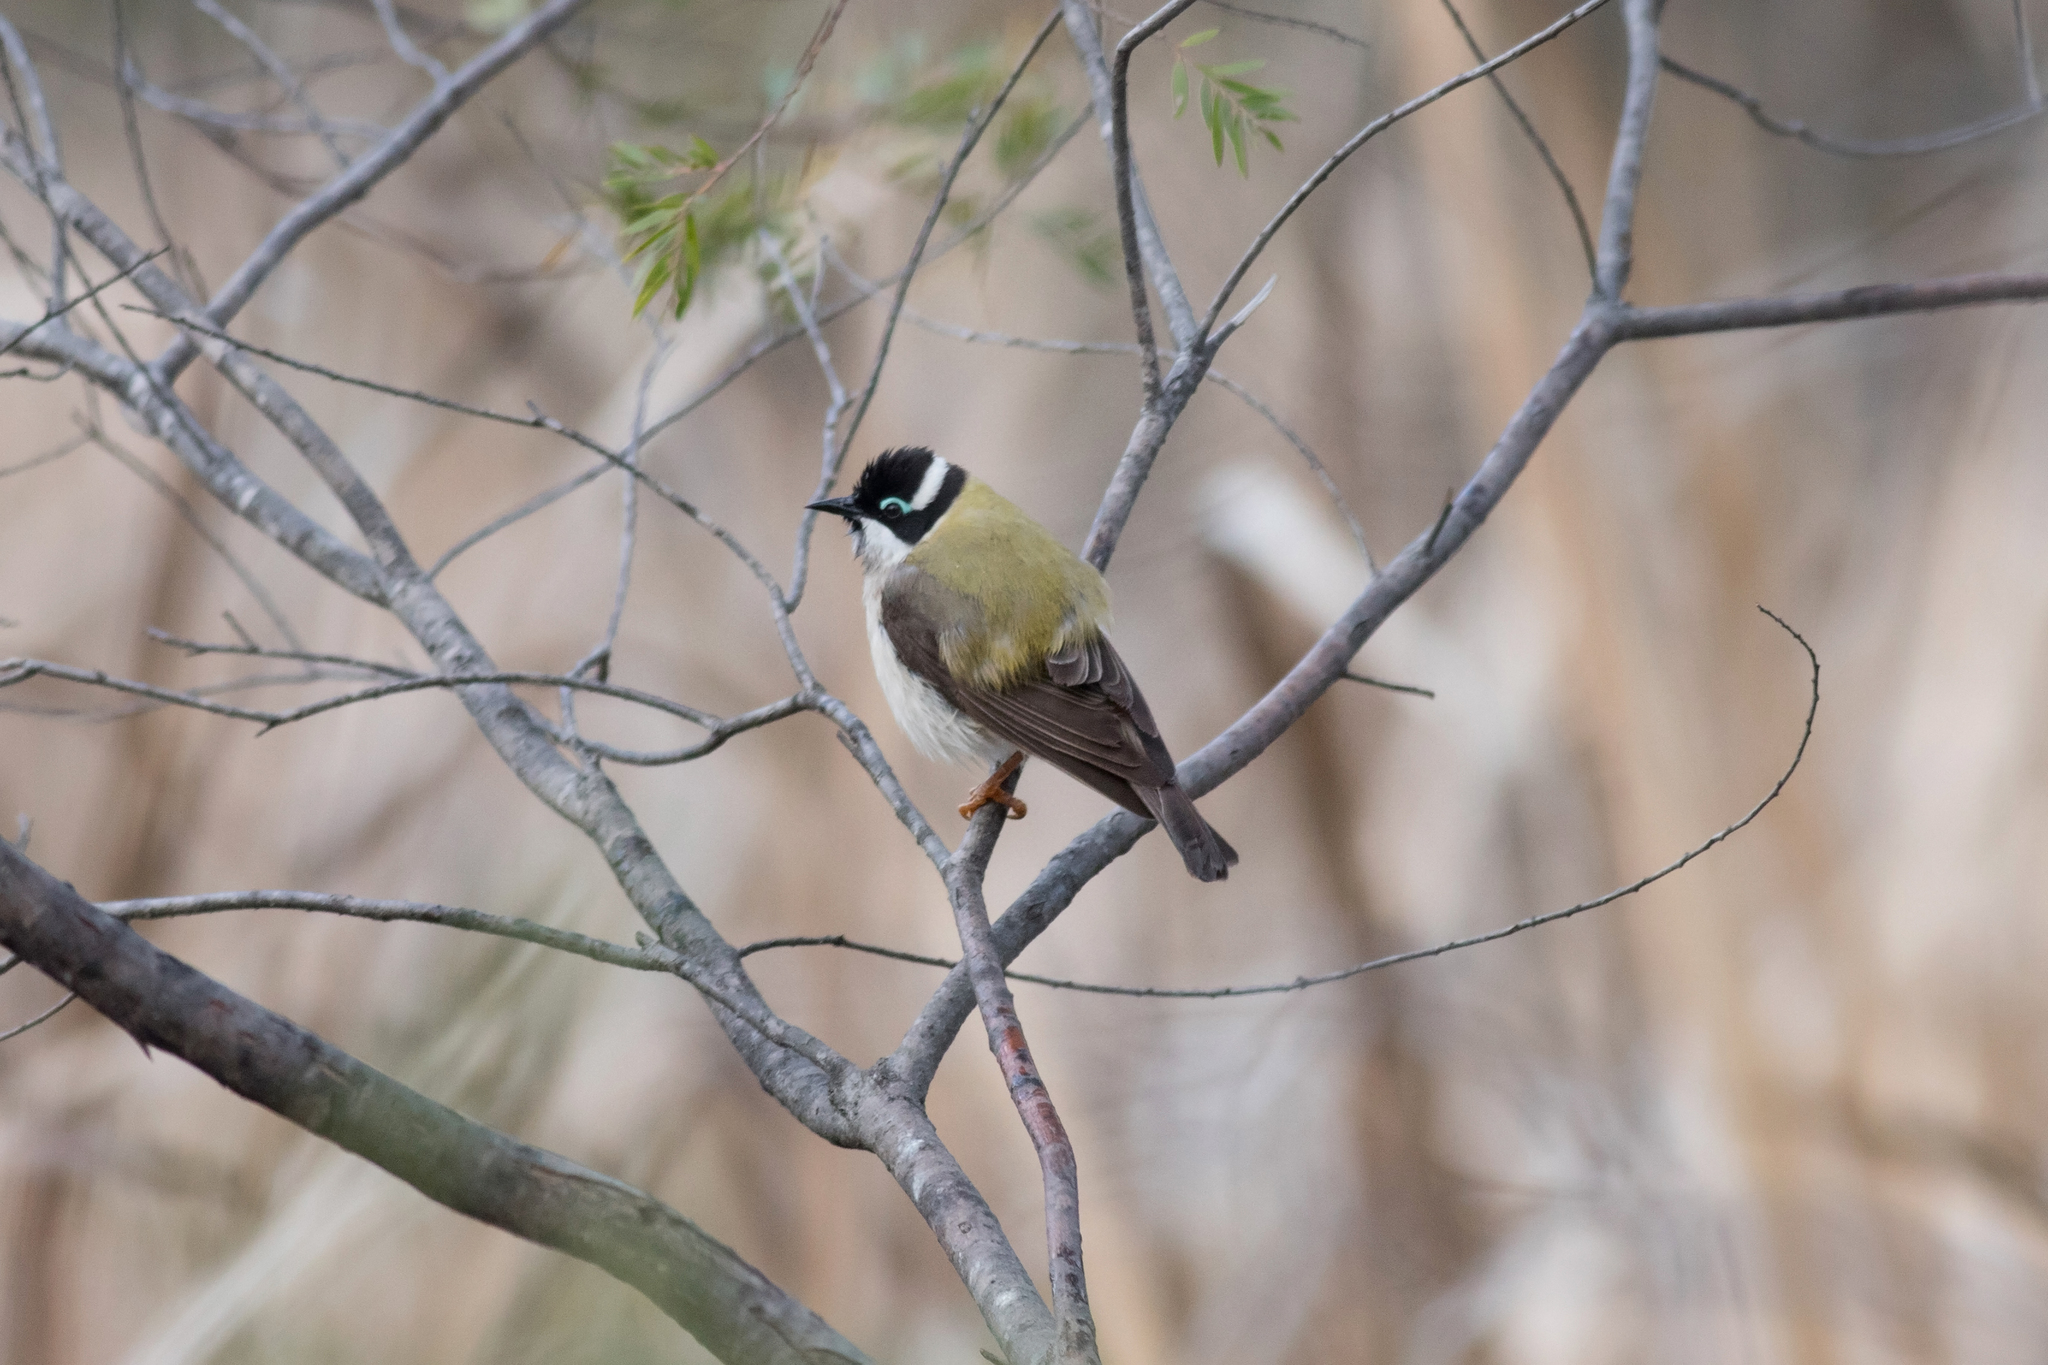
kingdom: Animalia
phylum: Chordata
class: Aves
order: Passeriformes
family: Meliphagidae
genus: Melithreptus
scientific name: Melithreptus gularis
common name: Black-chinned honeyeater
